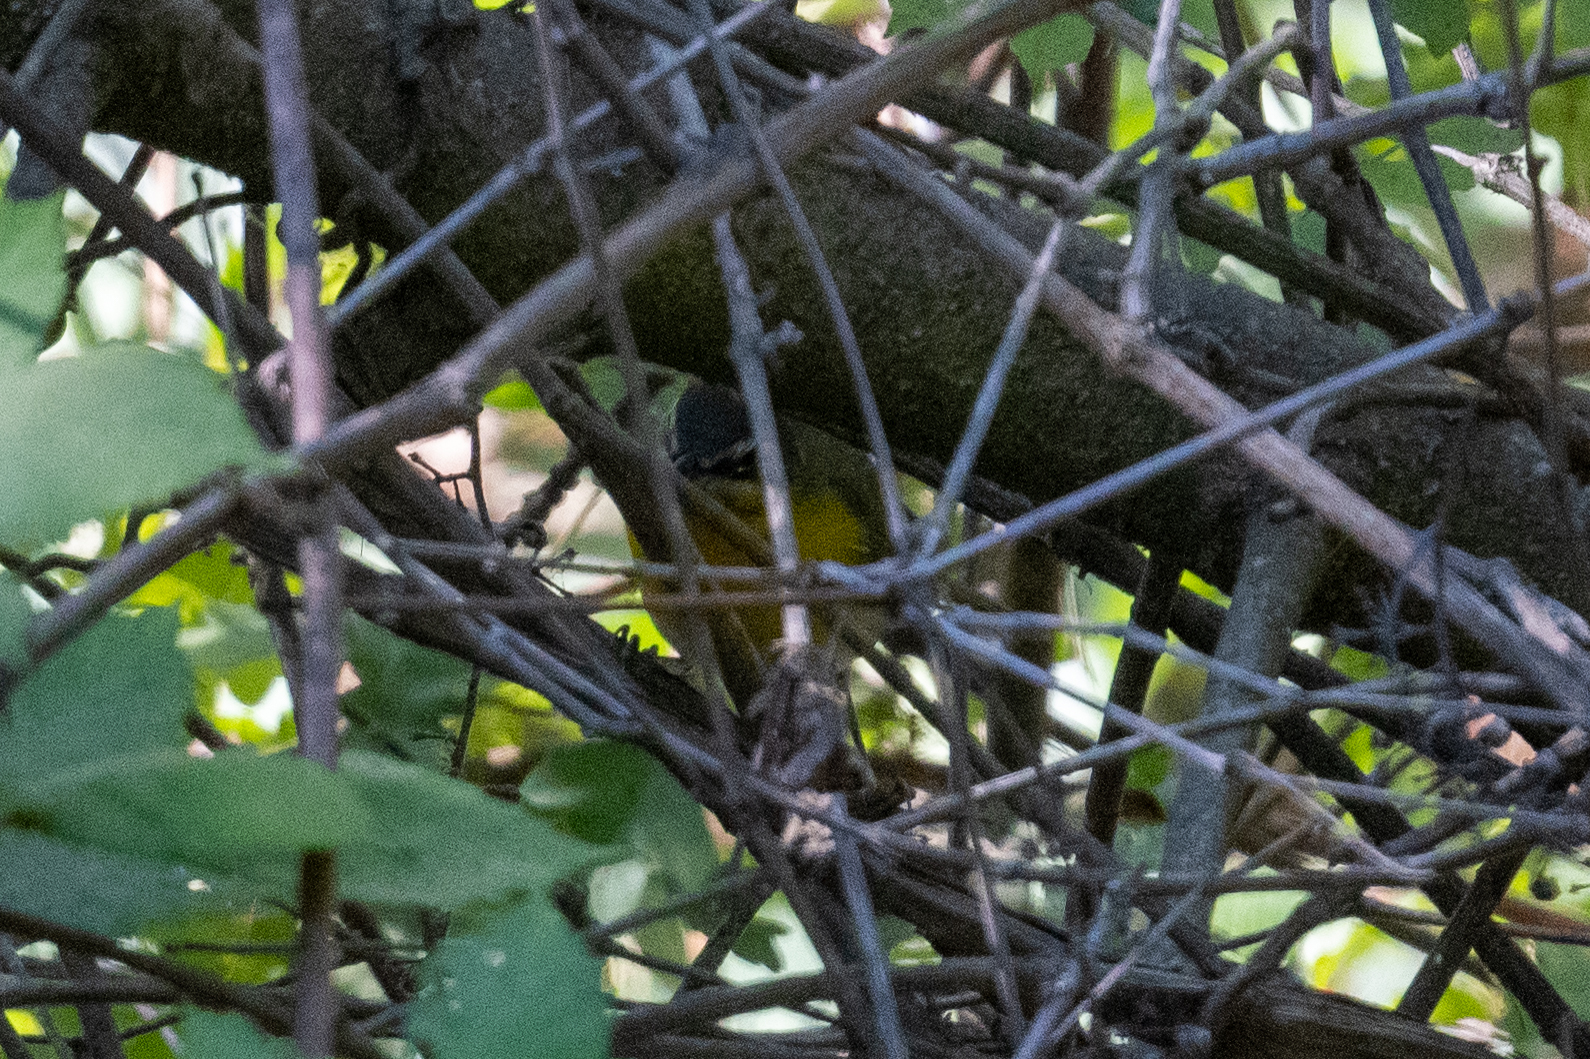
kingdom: Animalia
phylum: Chordata
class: Aves
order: Passeriformes
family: Parulidae
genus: Icteria
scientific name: Icteria virens
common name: Yellow-breasted chat
